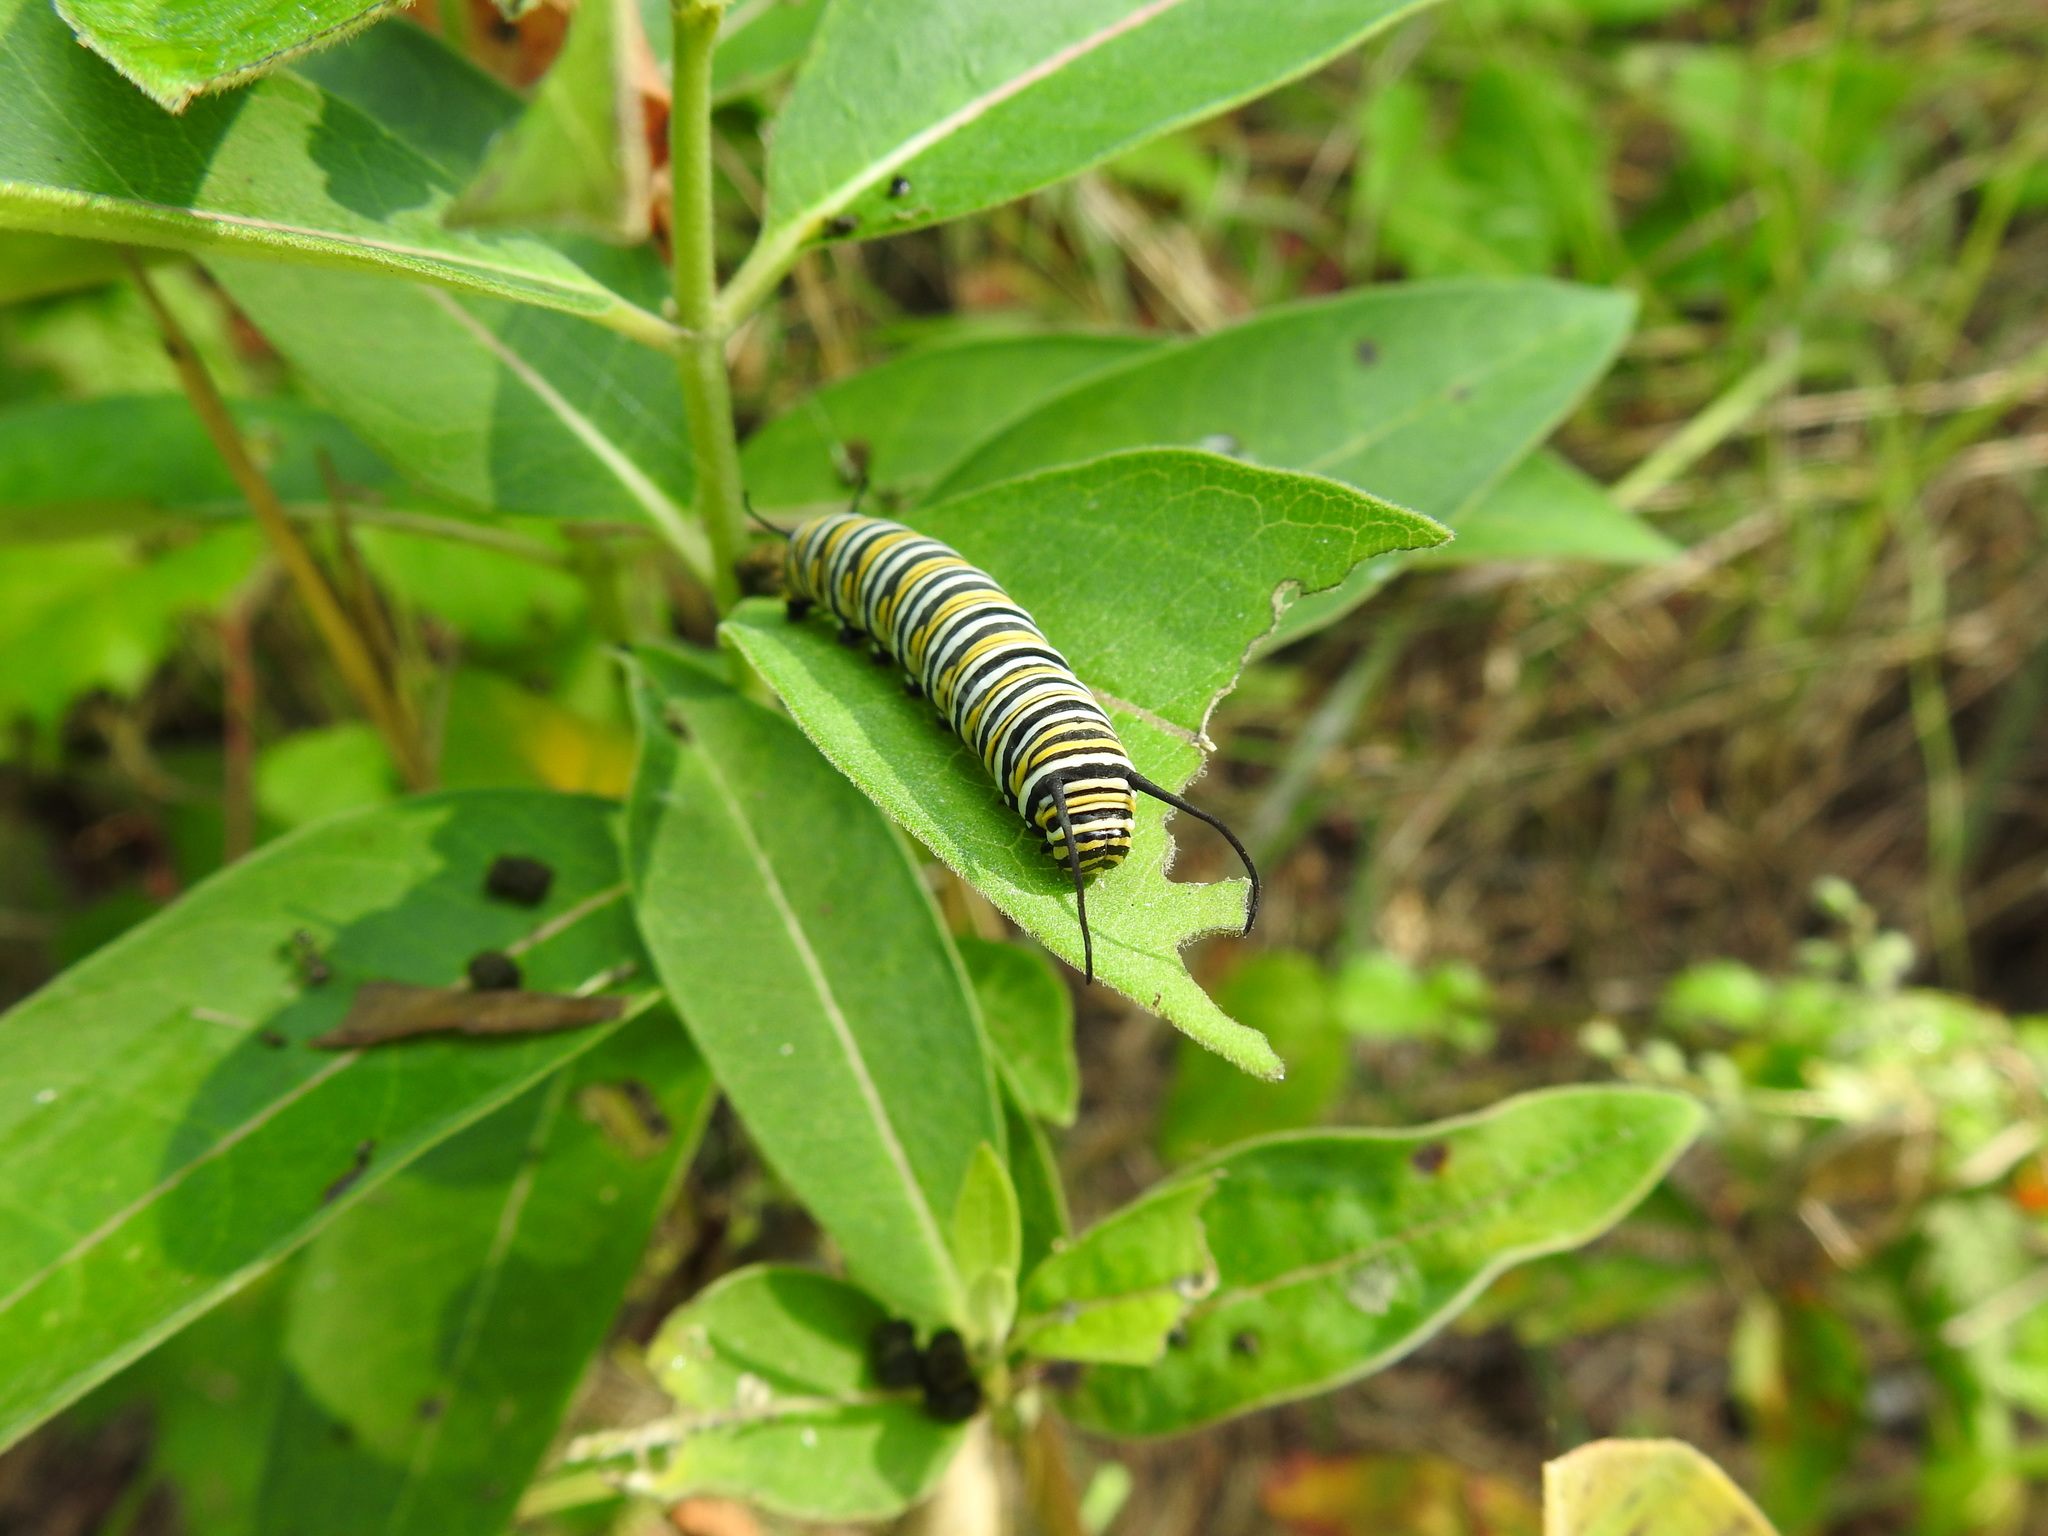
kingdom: Animalia
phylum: Arthropoda
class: Insecta
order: Lepidoptera
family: Nymphalidae
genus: Danaus
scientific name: Danaus plexippus
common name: Monarch
